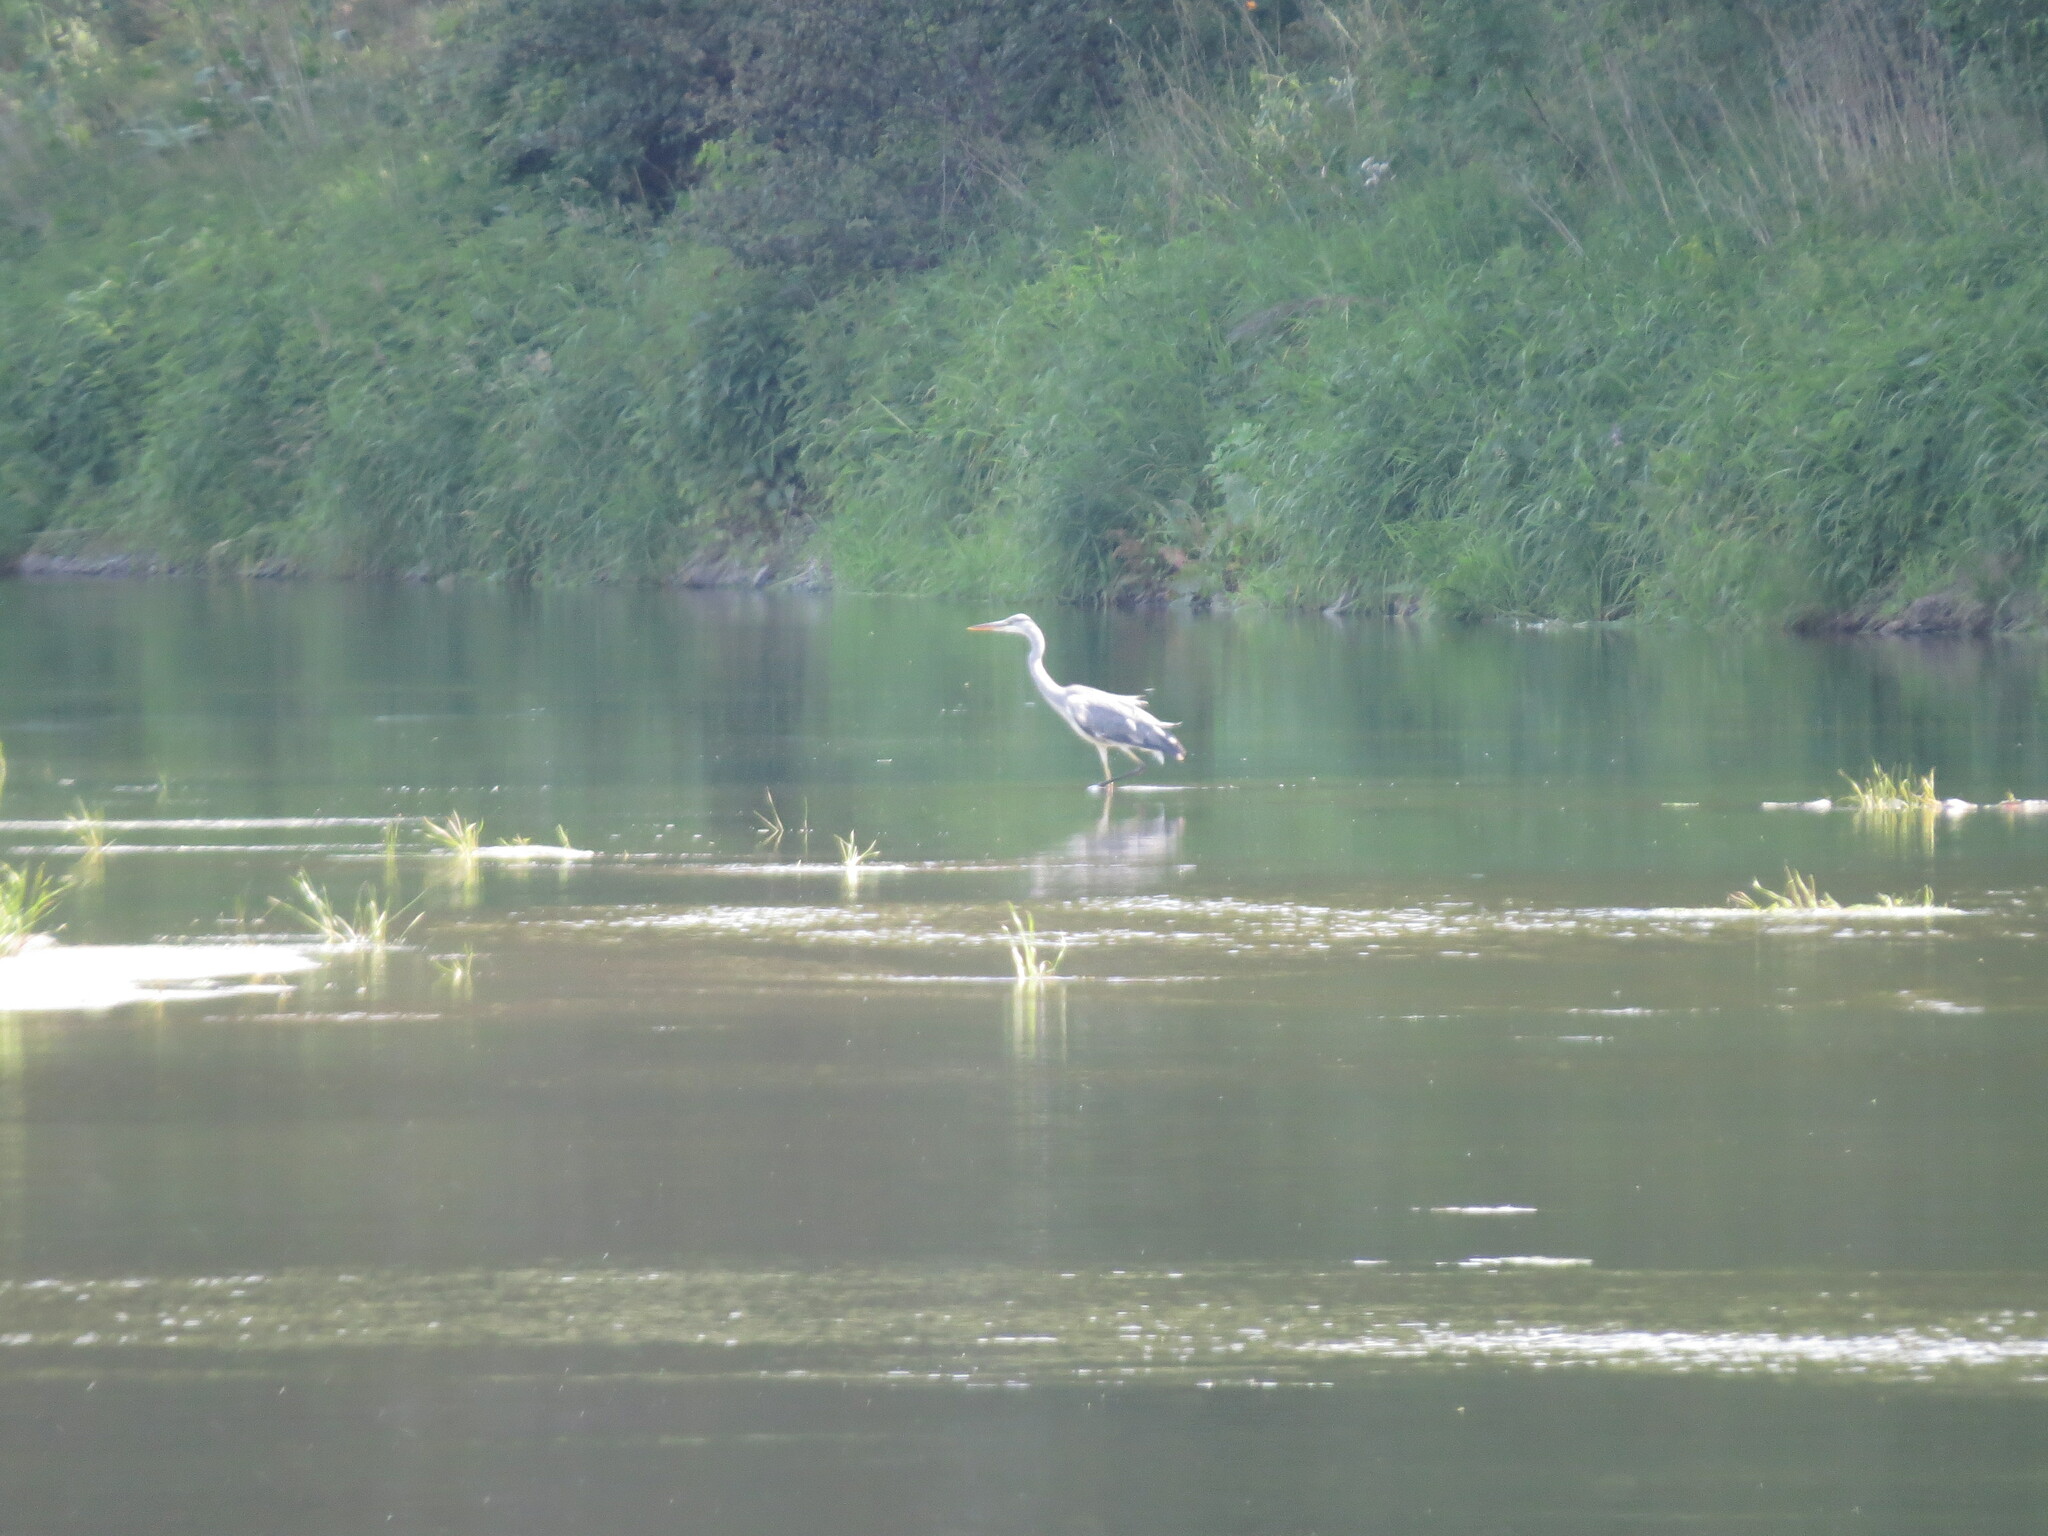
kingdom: Animalia
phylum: Chordata
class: Aves
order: Pelecaniformes
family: Ardeidae
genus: Ardea
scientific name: Ardea cinerea
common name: Grey heron
